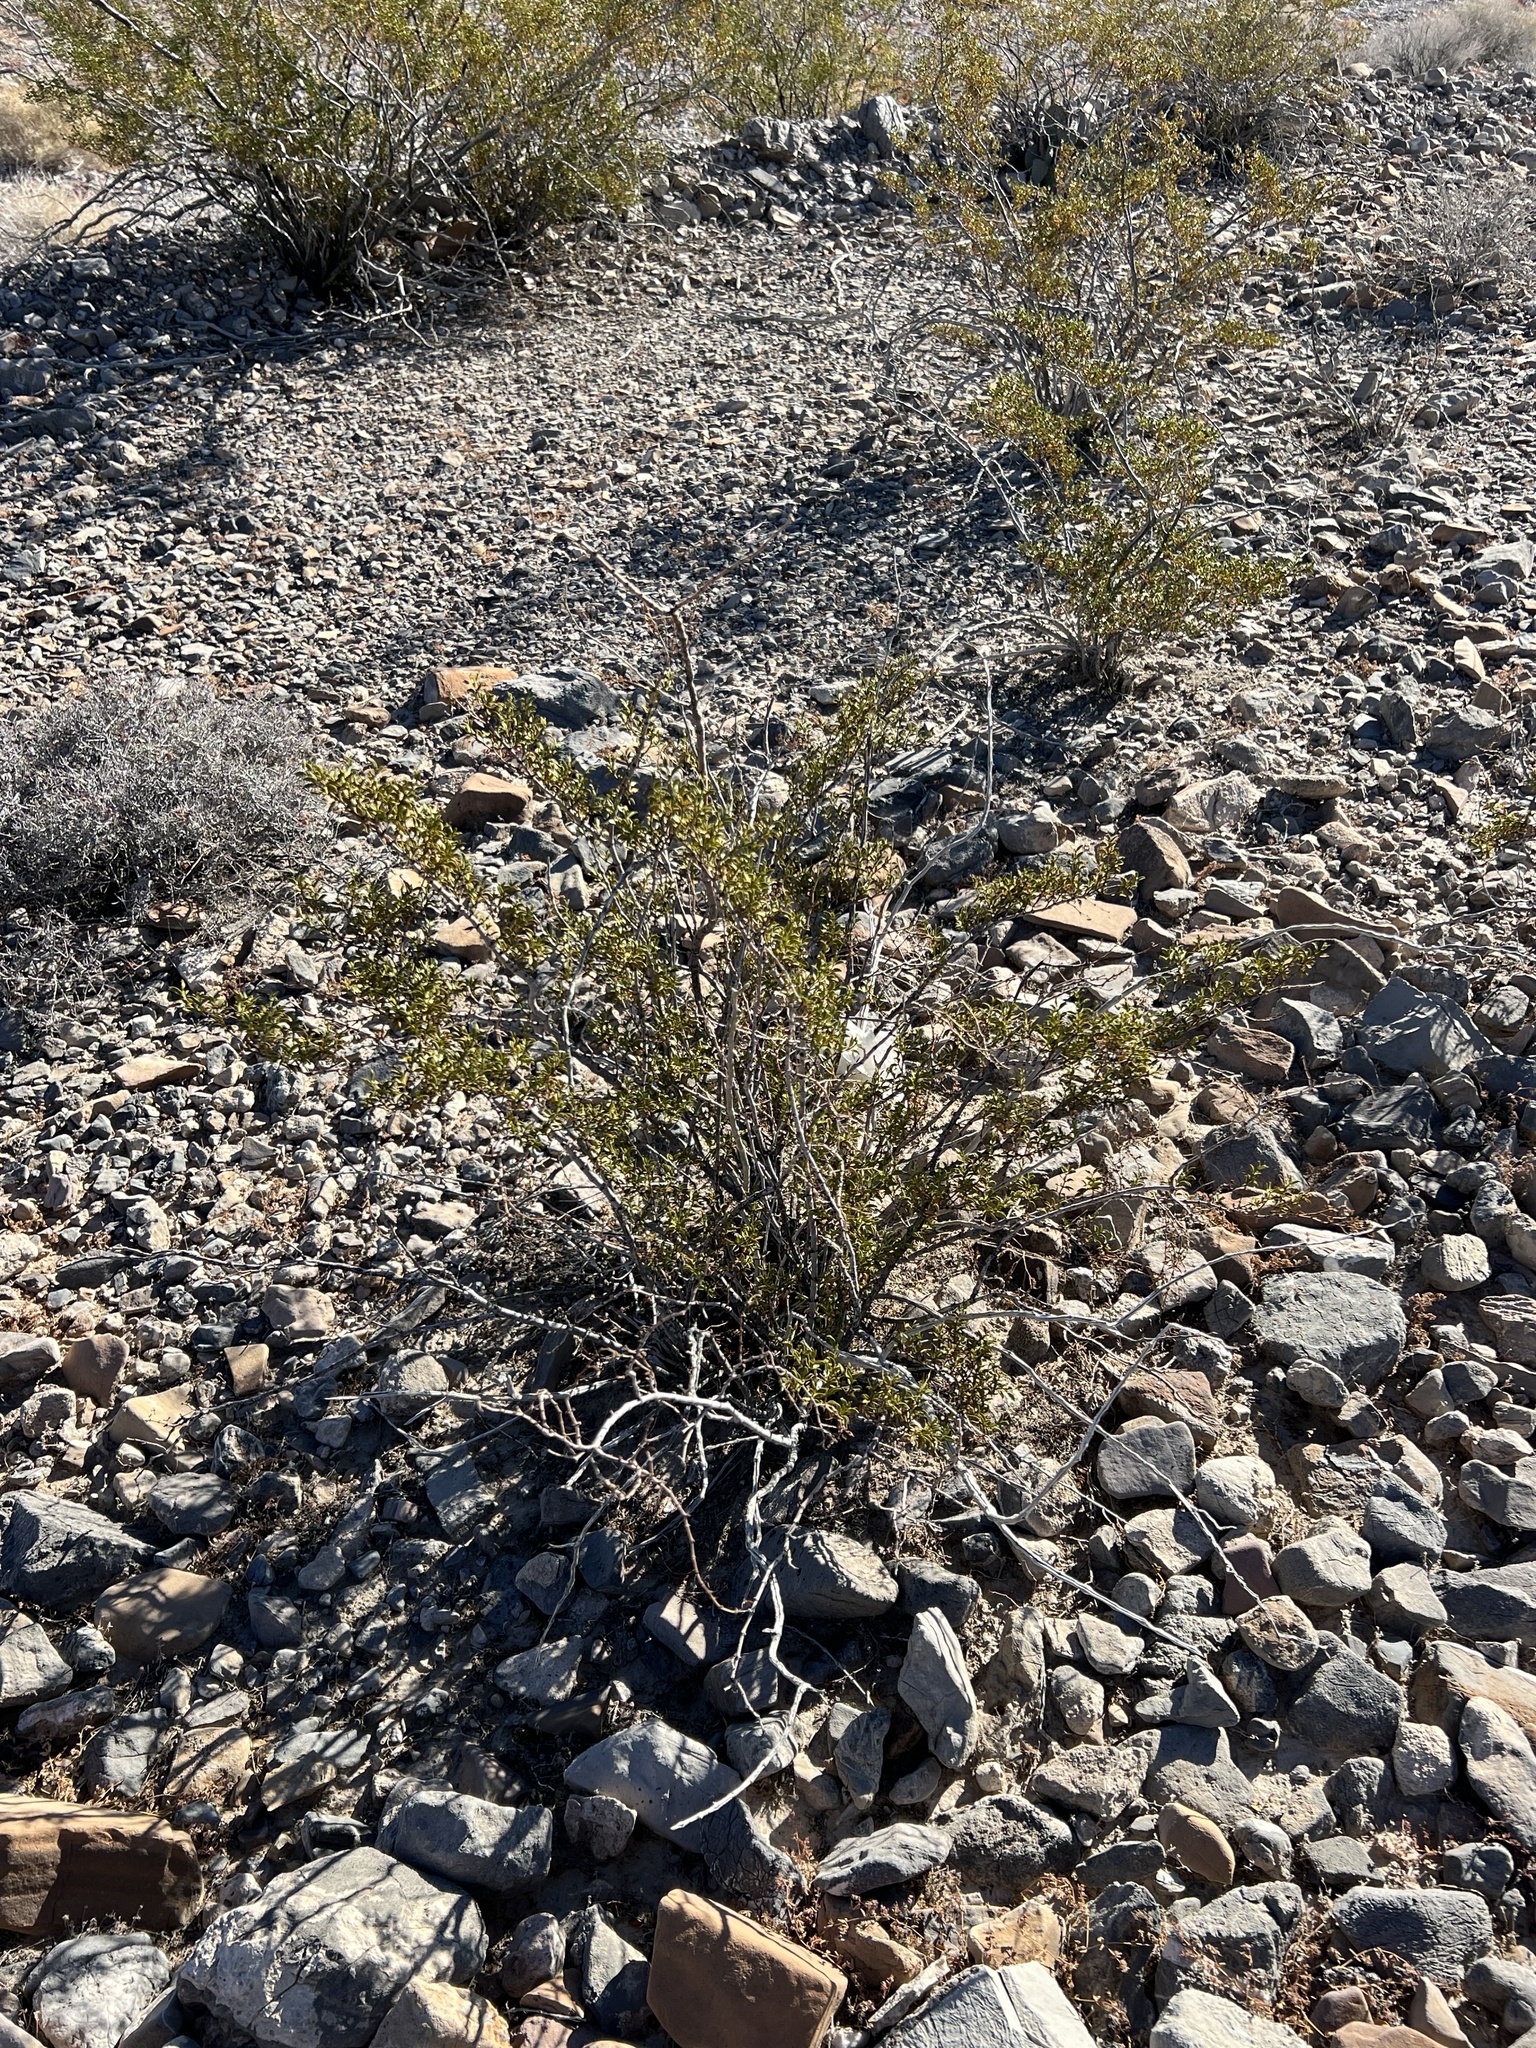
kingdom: Plantae
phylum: Tracheophyta
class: Magnoliopsida
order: Zygophyllales
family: Zygophyllaceae
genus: Larrea
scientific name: Larrea tridentata
